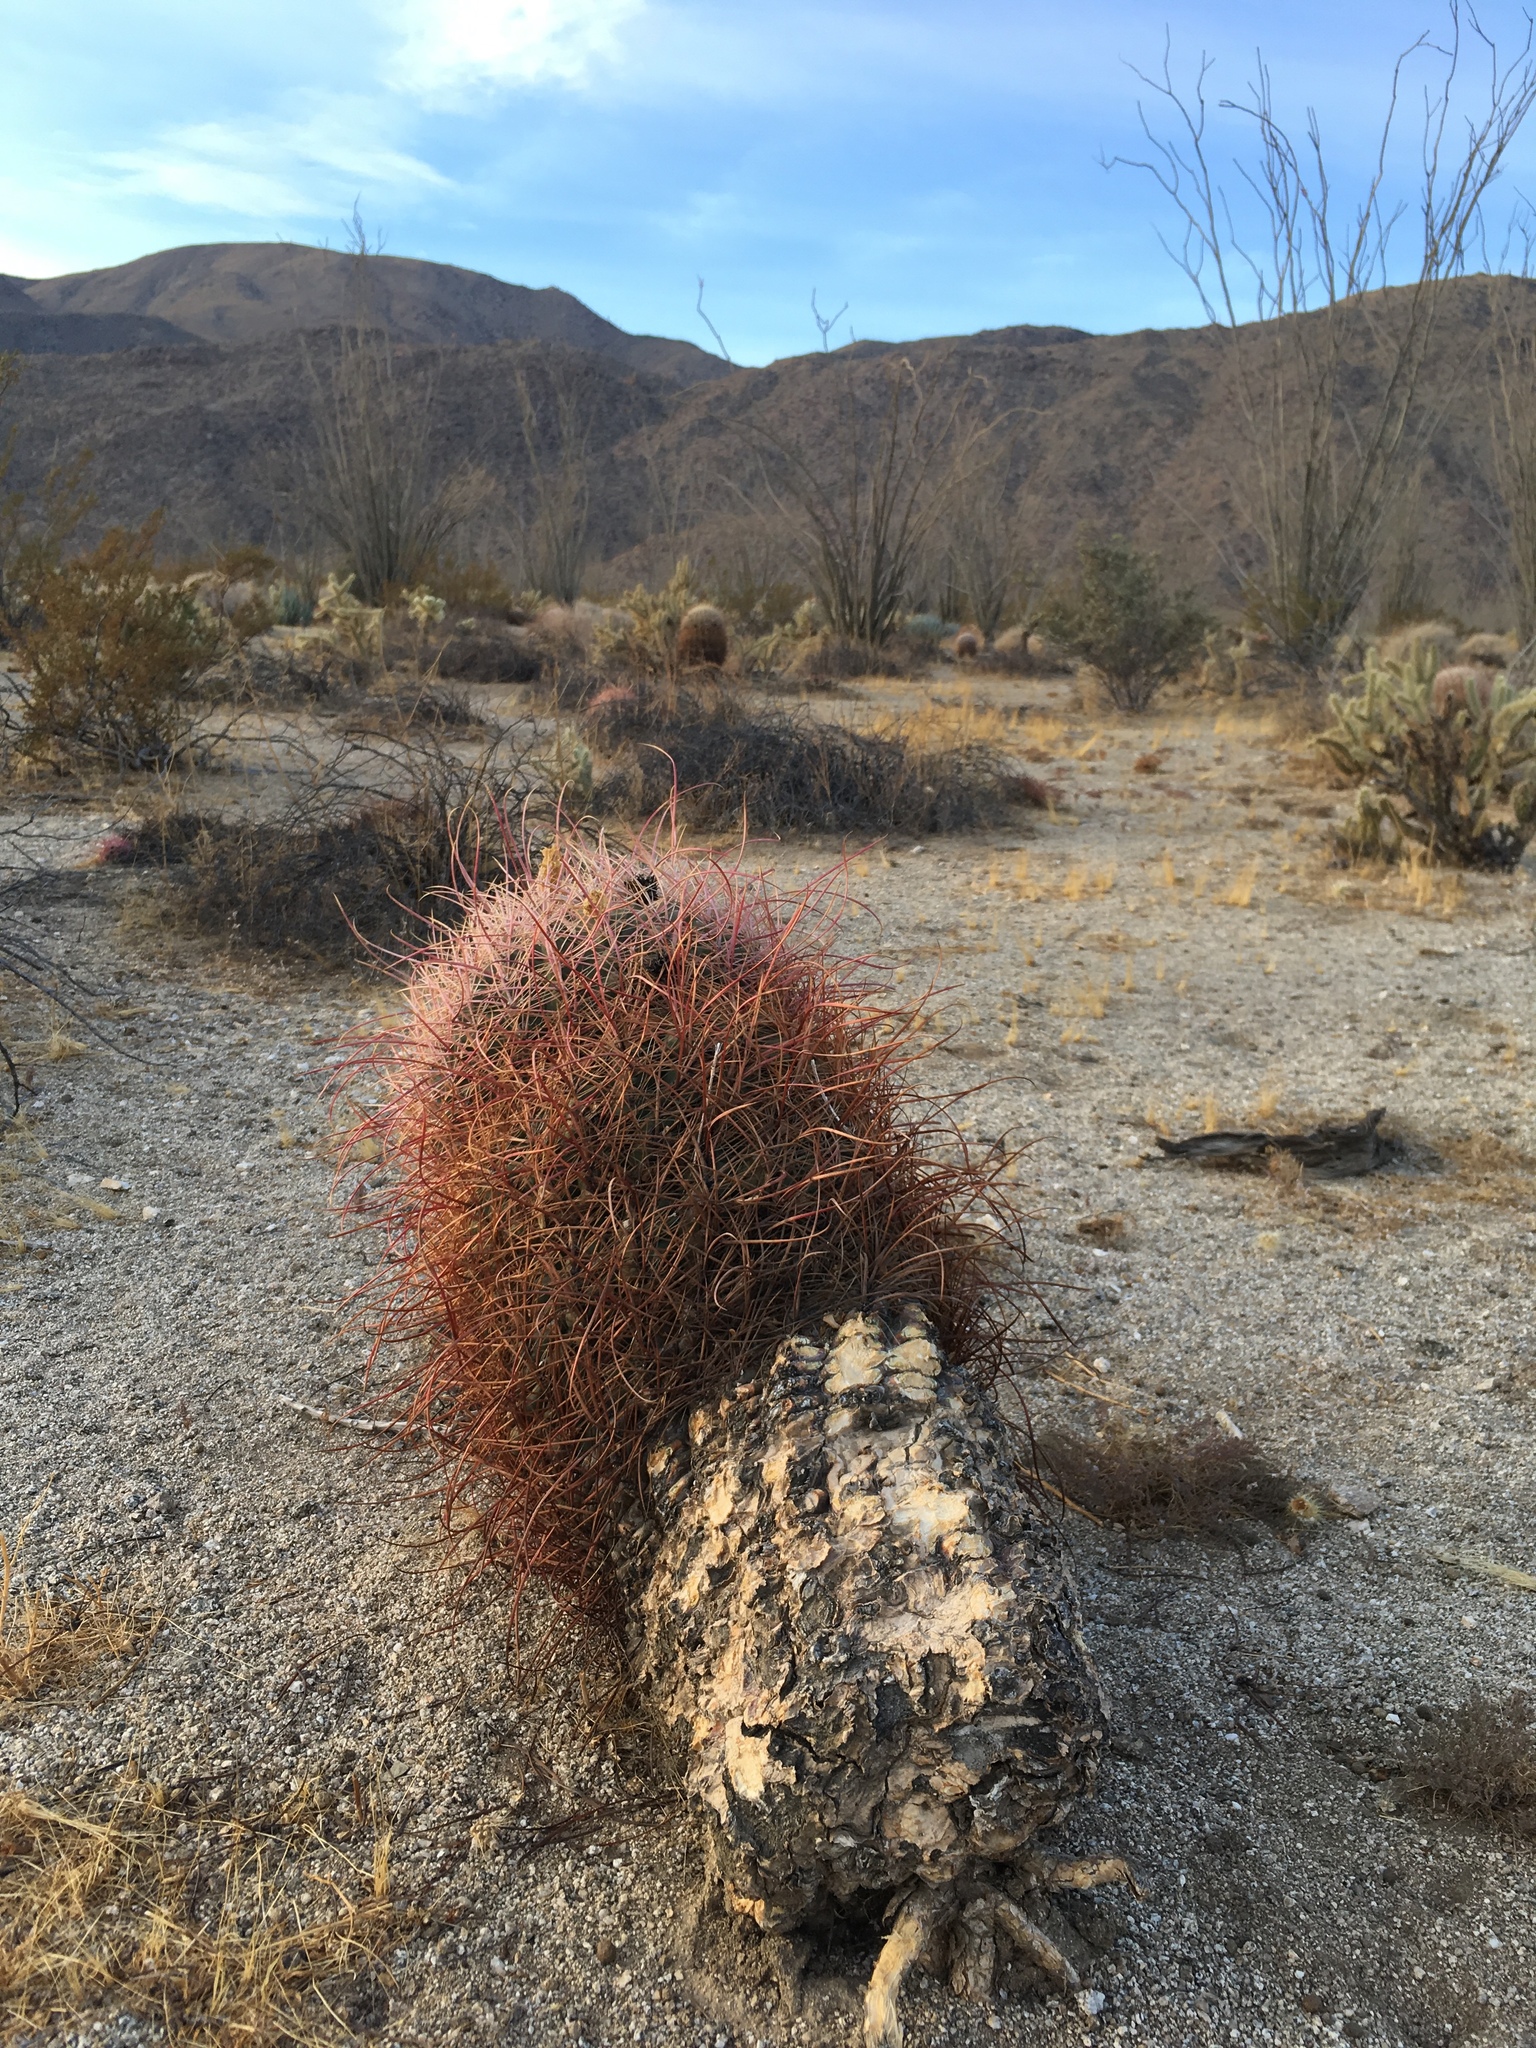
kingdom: Plantae
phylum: Tracheophyta
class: Magnoliopsida
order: Caryophyllales
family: Cactaceae
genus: Ferocactus
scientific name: Ferocactus cylindraceus
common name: California barrel cactus
